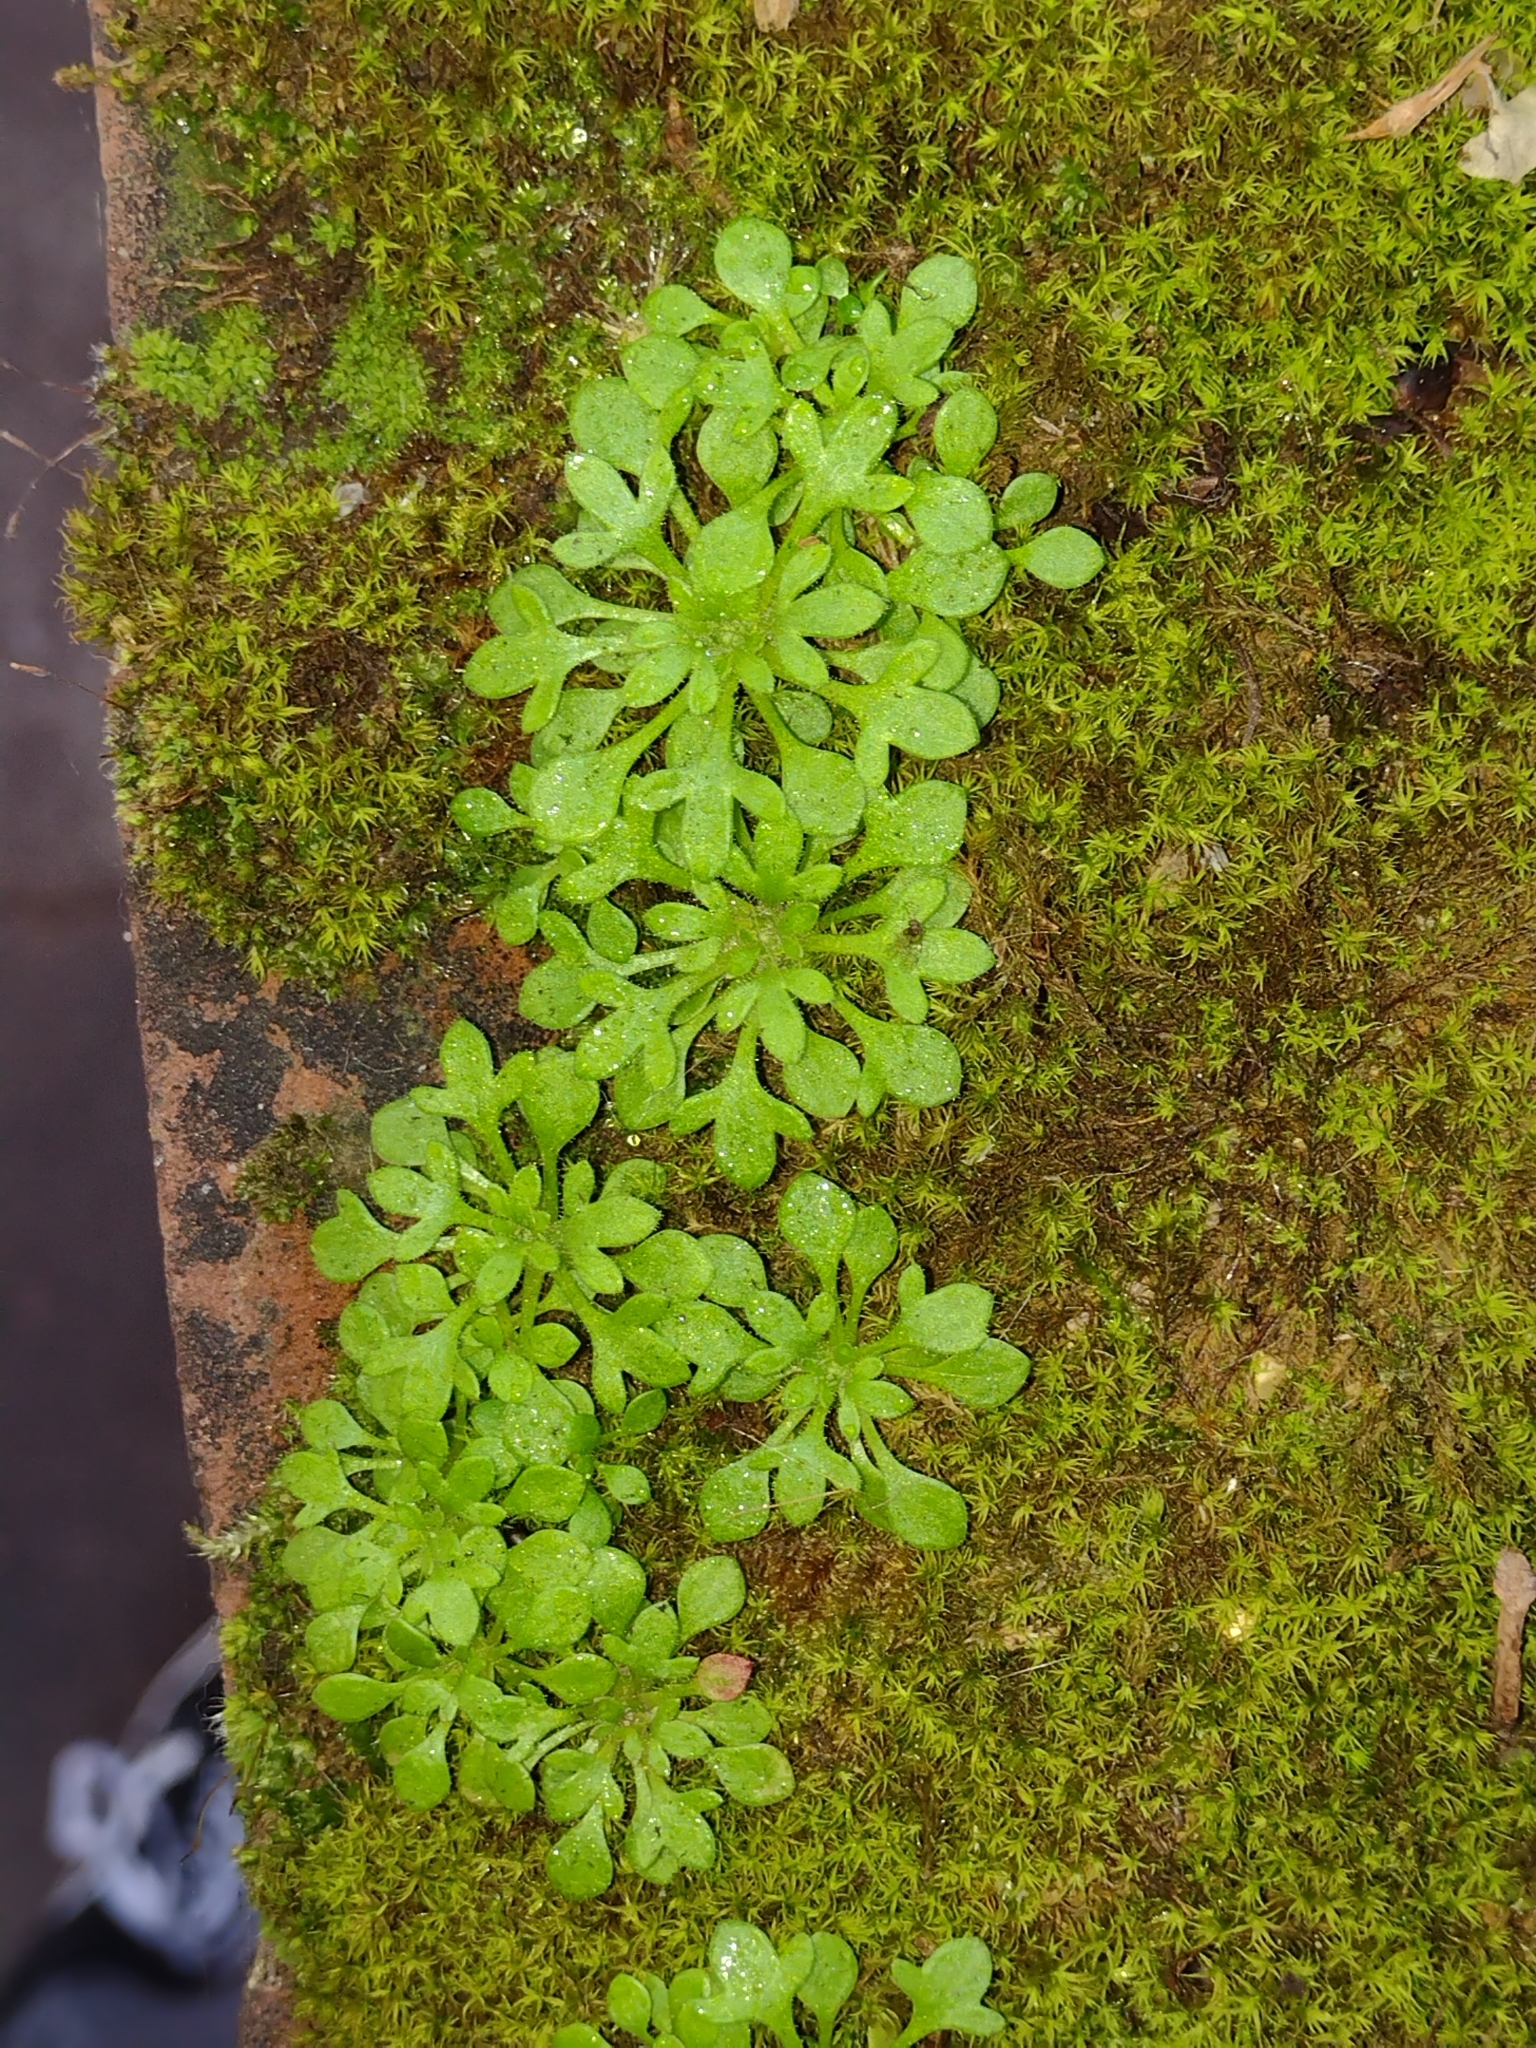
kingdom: Plantae
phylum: Tracheophyta
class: Magnoliopsida
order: Saxifragales
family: Saxifragaceae
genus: Saxifraga
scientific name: Saxifraga tridactylites
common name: Rue-leaved saxifrage
